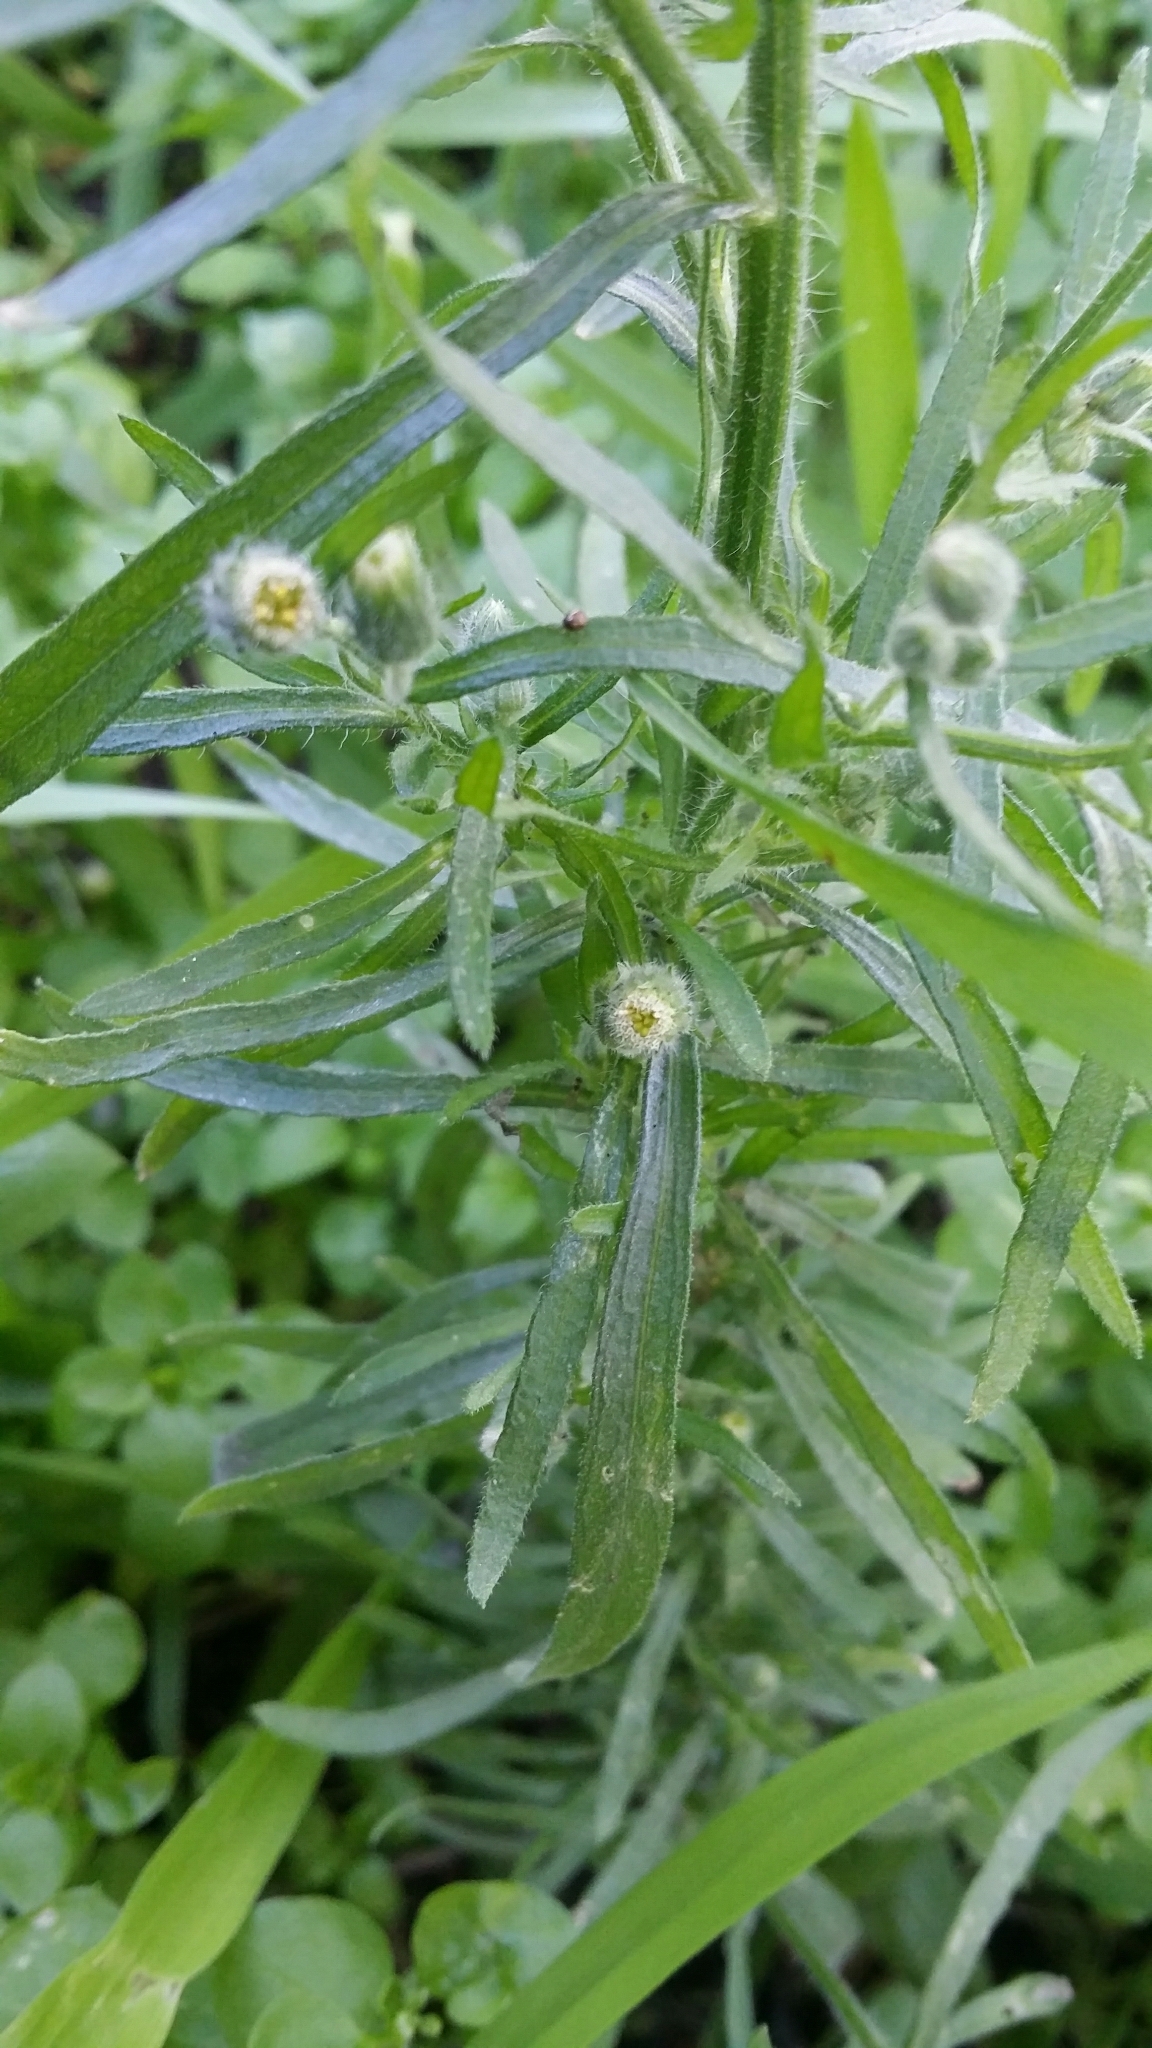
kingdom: Plantae
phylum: Tracheophyta
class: Magnoliopsida
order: Asterales
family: Asteraceae
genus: Erigeron
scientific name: Erigeron bonariensis
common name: Argentine fleabane
